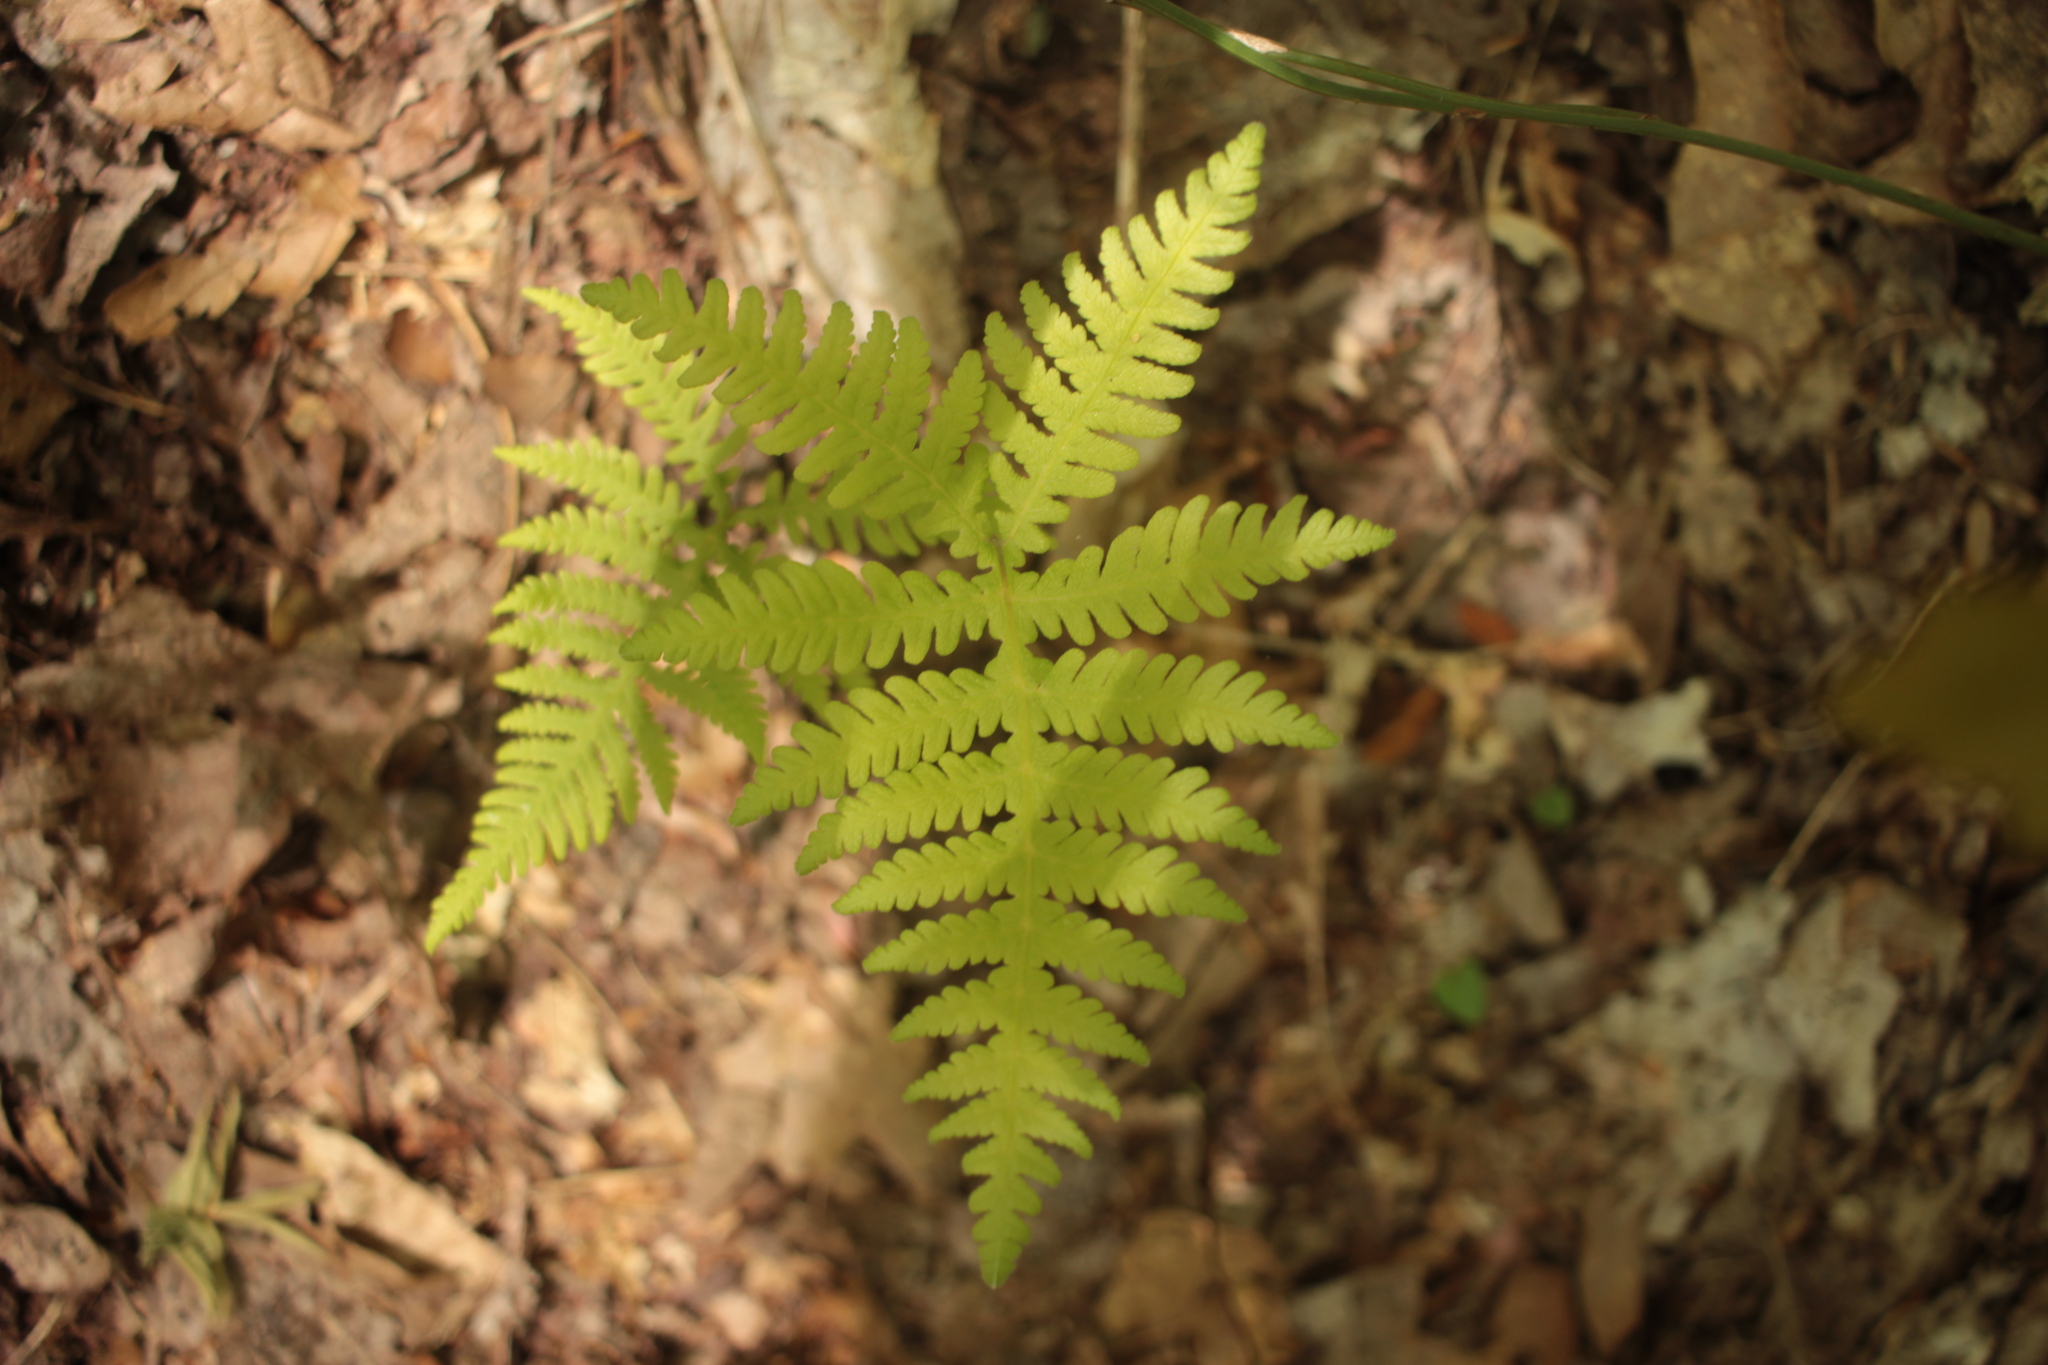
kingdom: Plantae
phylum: Tracheophyta
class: Polypodiopsida
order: Polypodiales
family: Thelypteridaceae
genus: Phegopteris
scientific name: Phegopteris hexagonoptera
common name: Broad beech fern
